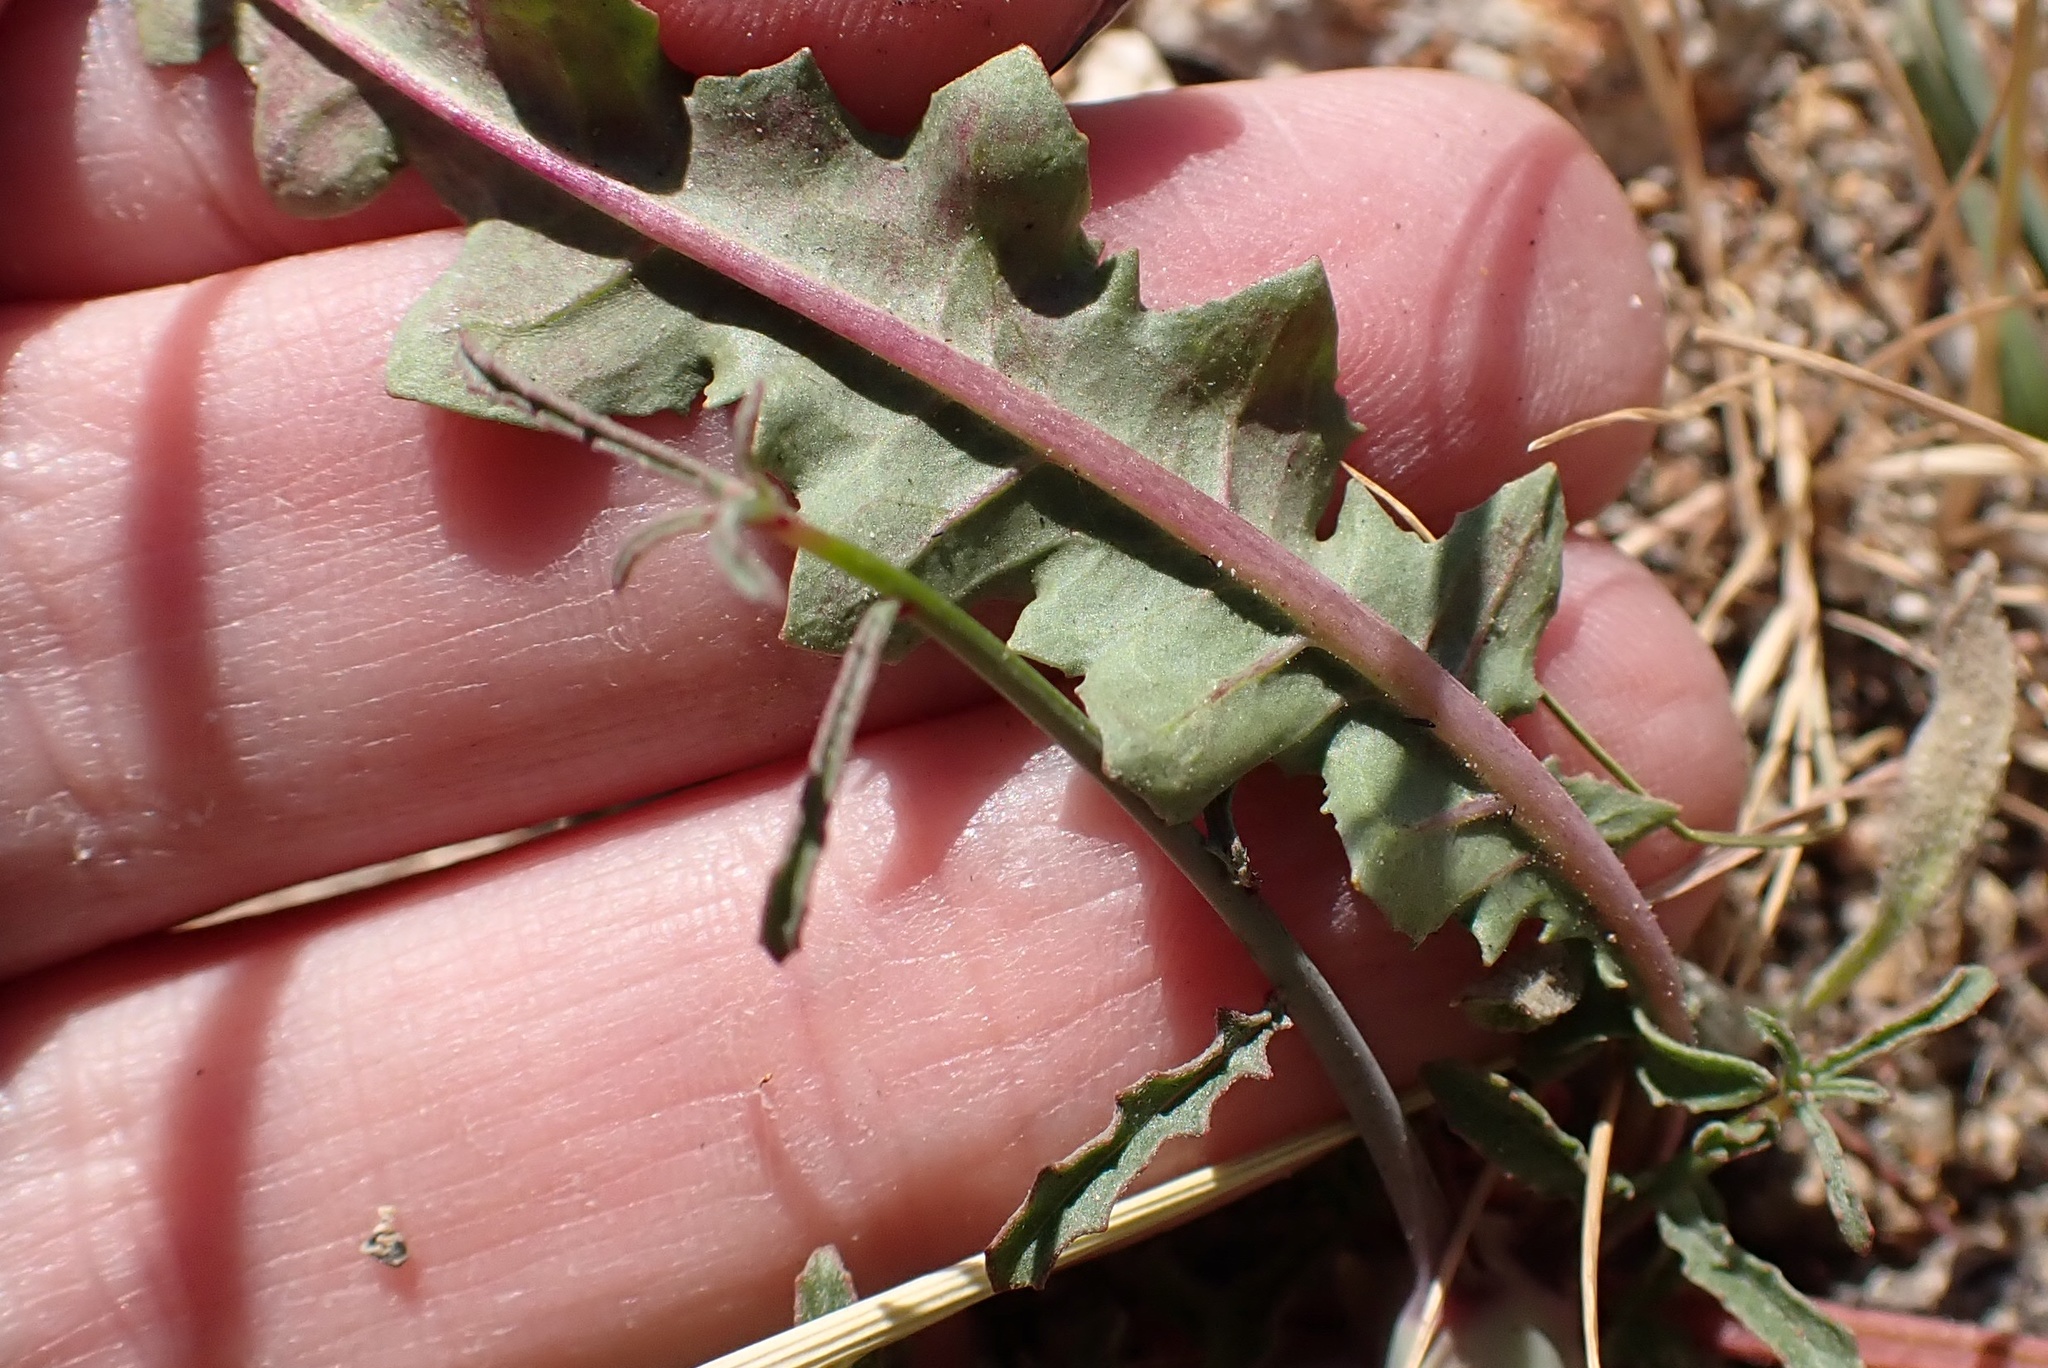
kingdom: Plantae
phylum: Tracheophyta
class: Magnoliopsida
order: Myrtales
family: Onagraceae
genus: Eulobus
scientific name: Eulobus californicus
